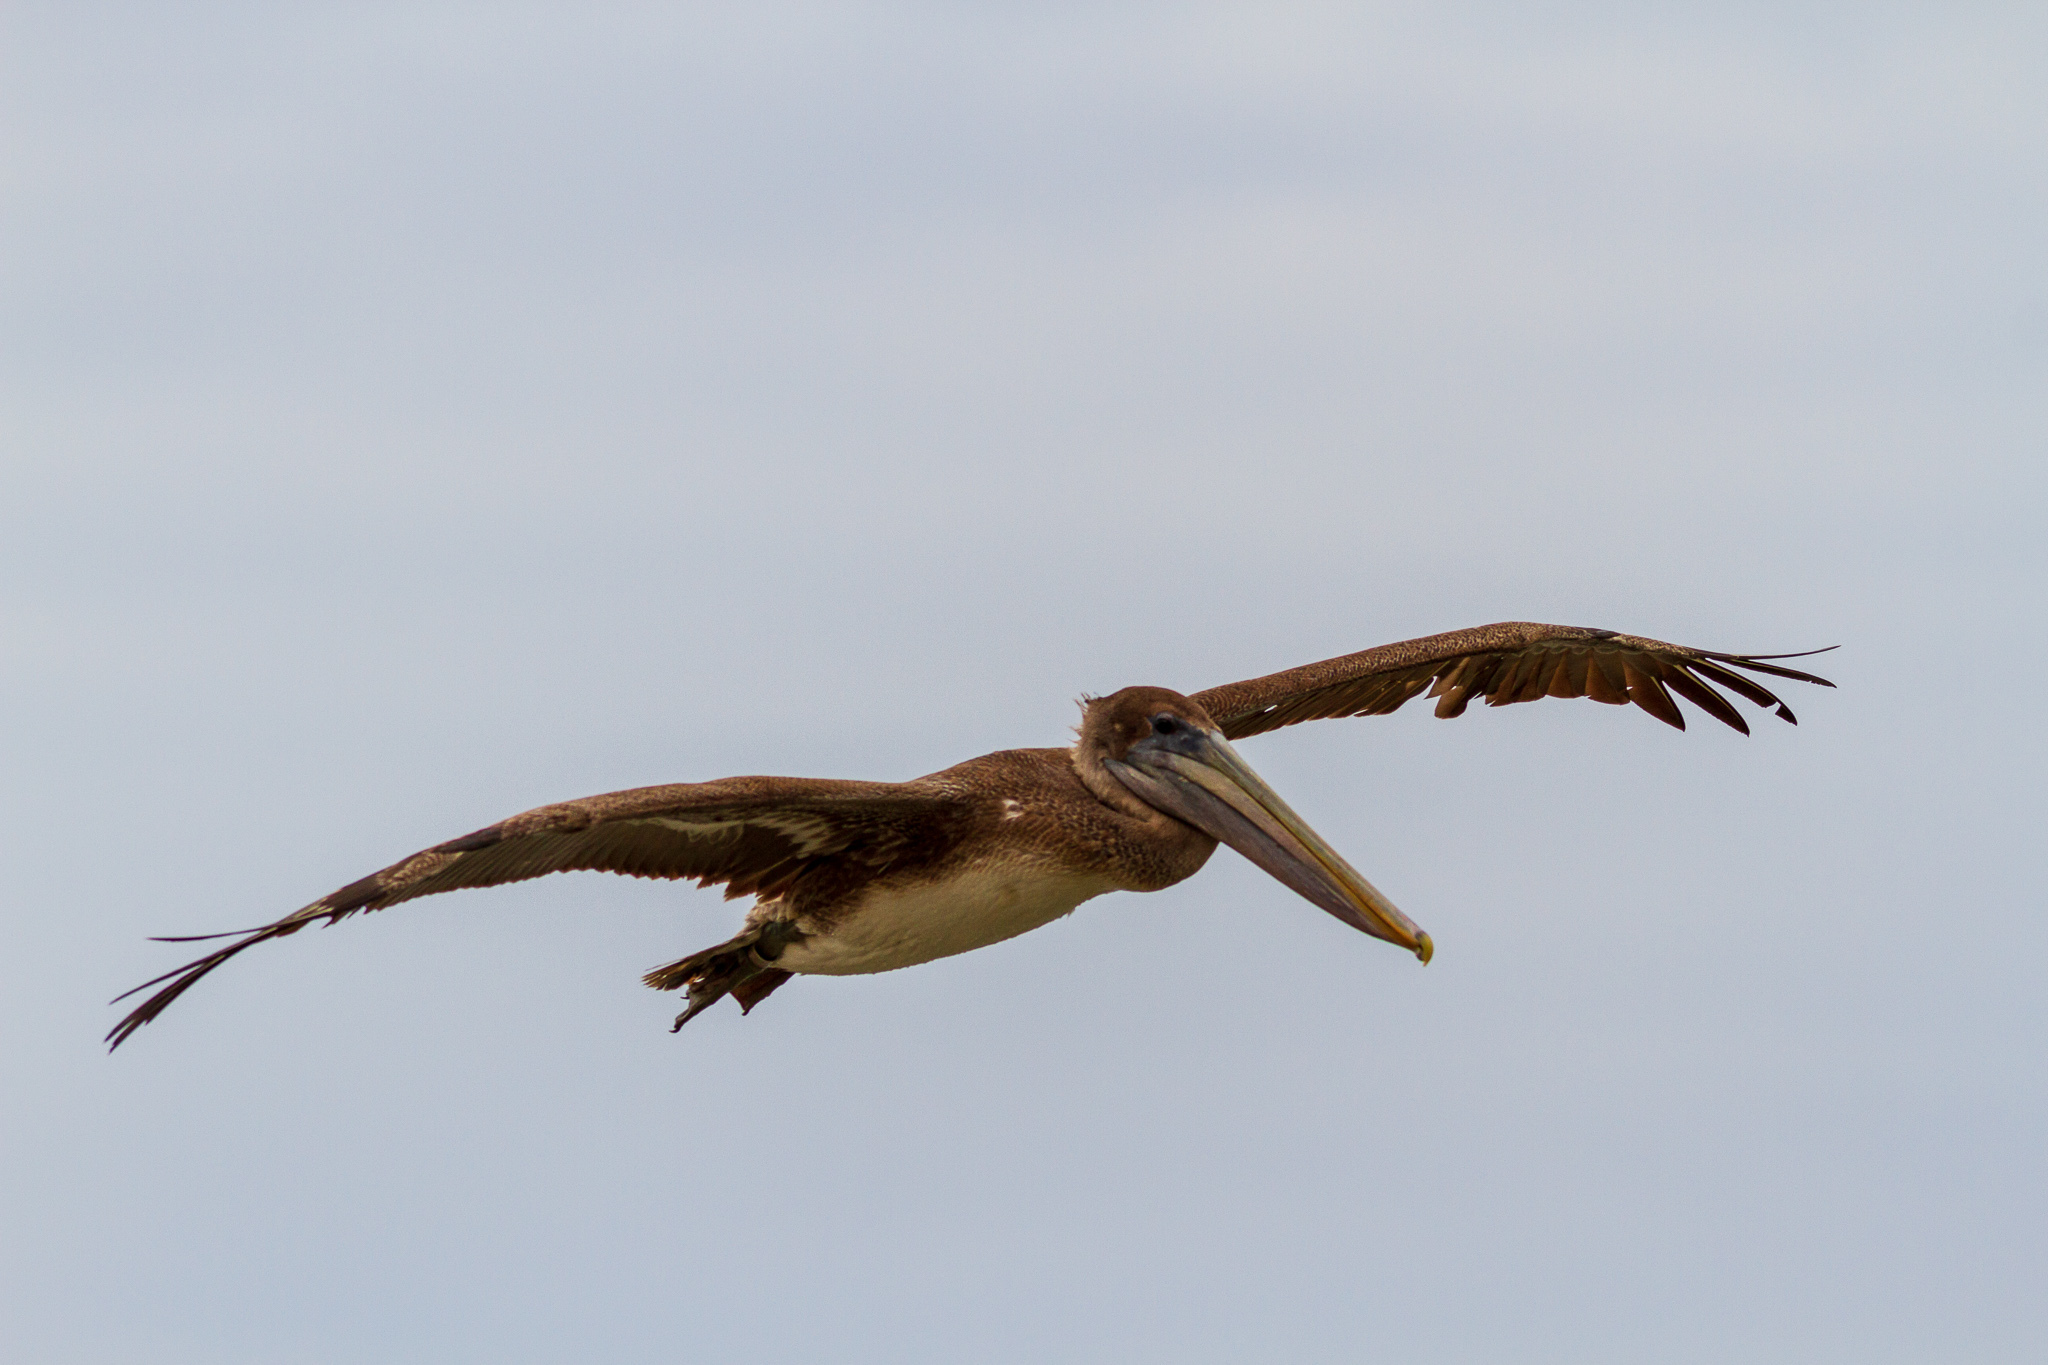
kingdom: Animalia
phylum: Chordata
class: Aves
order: Pelecaniformes
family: Pelecanidae
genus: Pelecanus
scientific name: Pelecanus occidentalis
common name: Brown pelican
